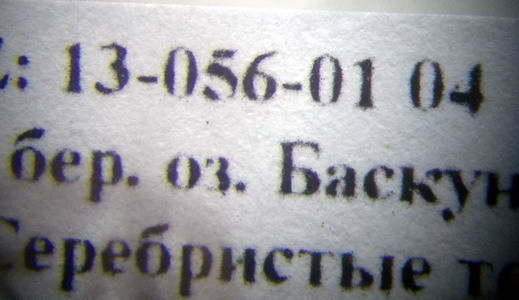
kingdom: Animalia
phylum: Arthropoda
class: Insecta
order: Hymenoptera
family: Formicidae
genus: Camponotus
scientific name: Camponotus turkestanus
